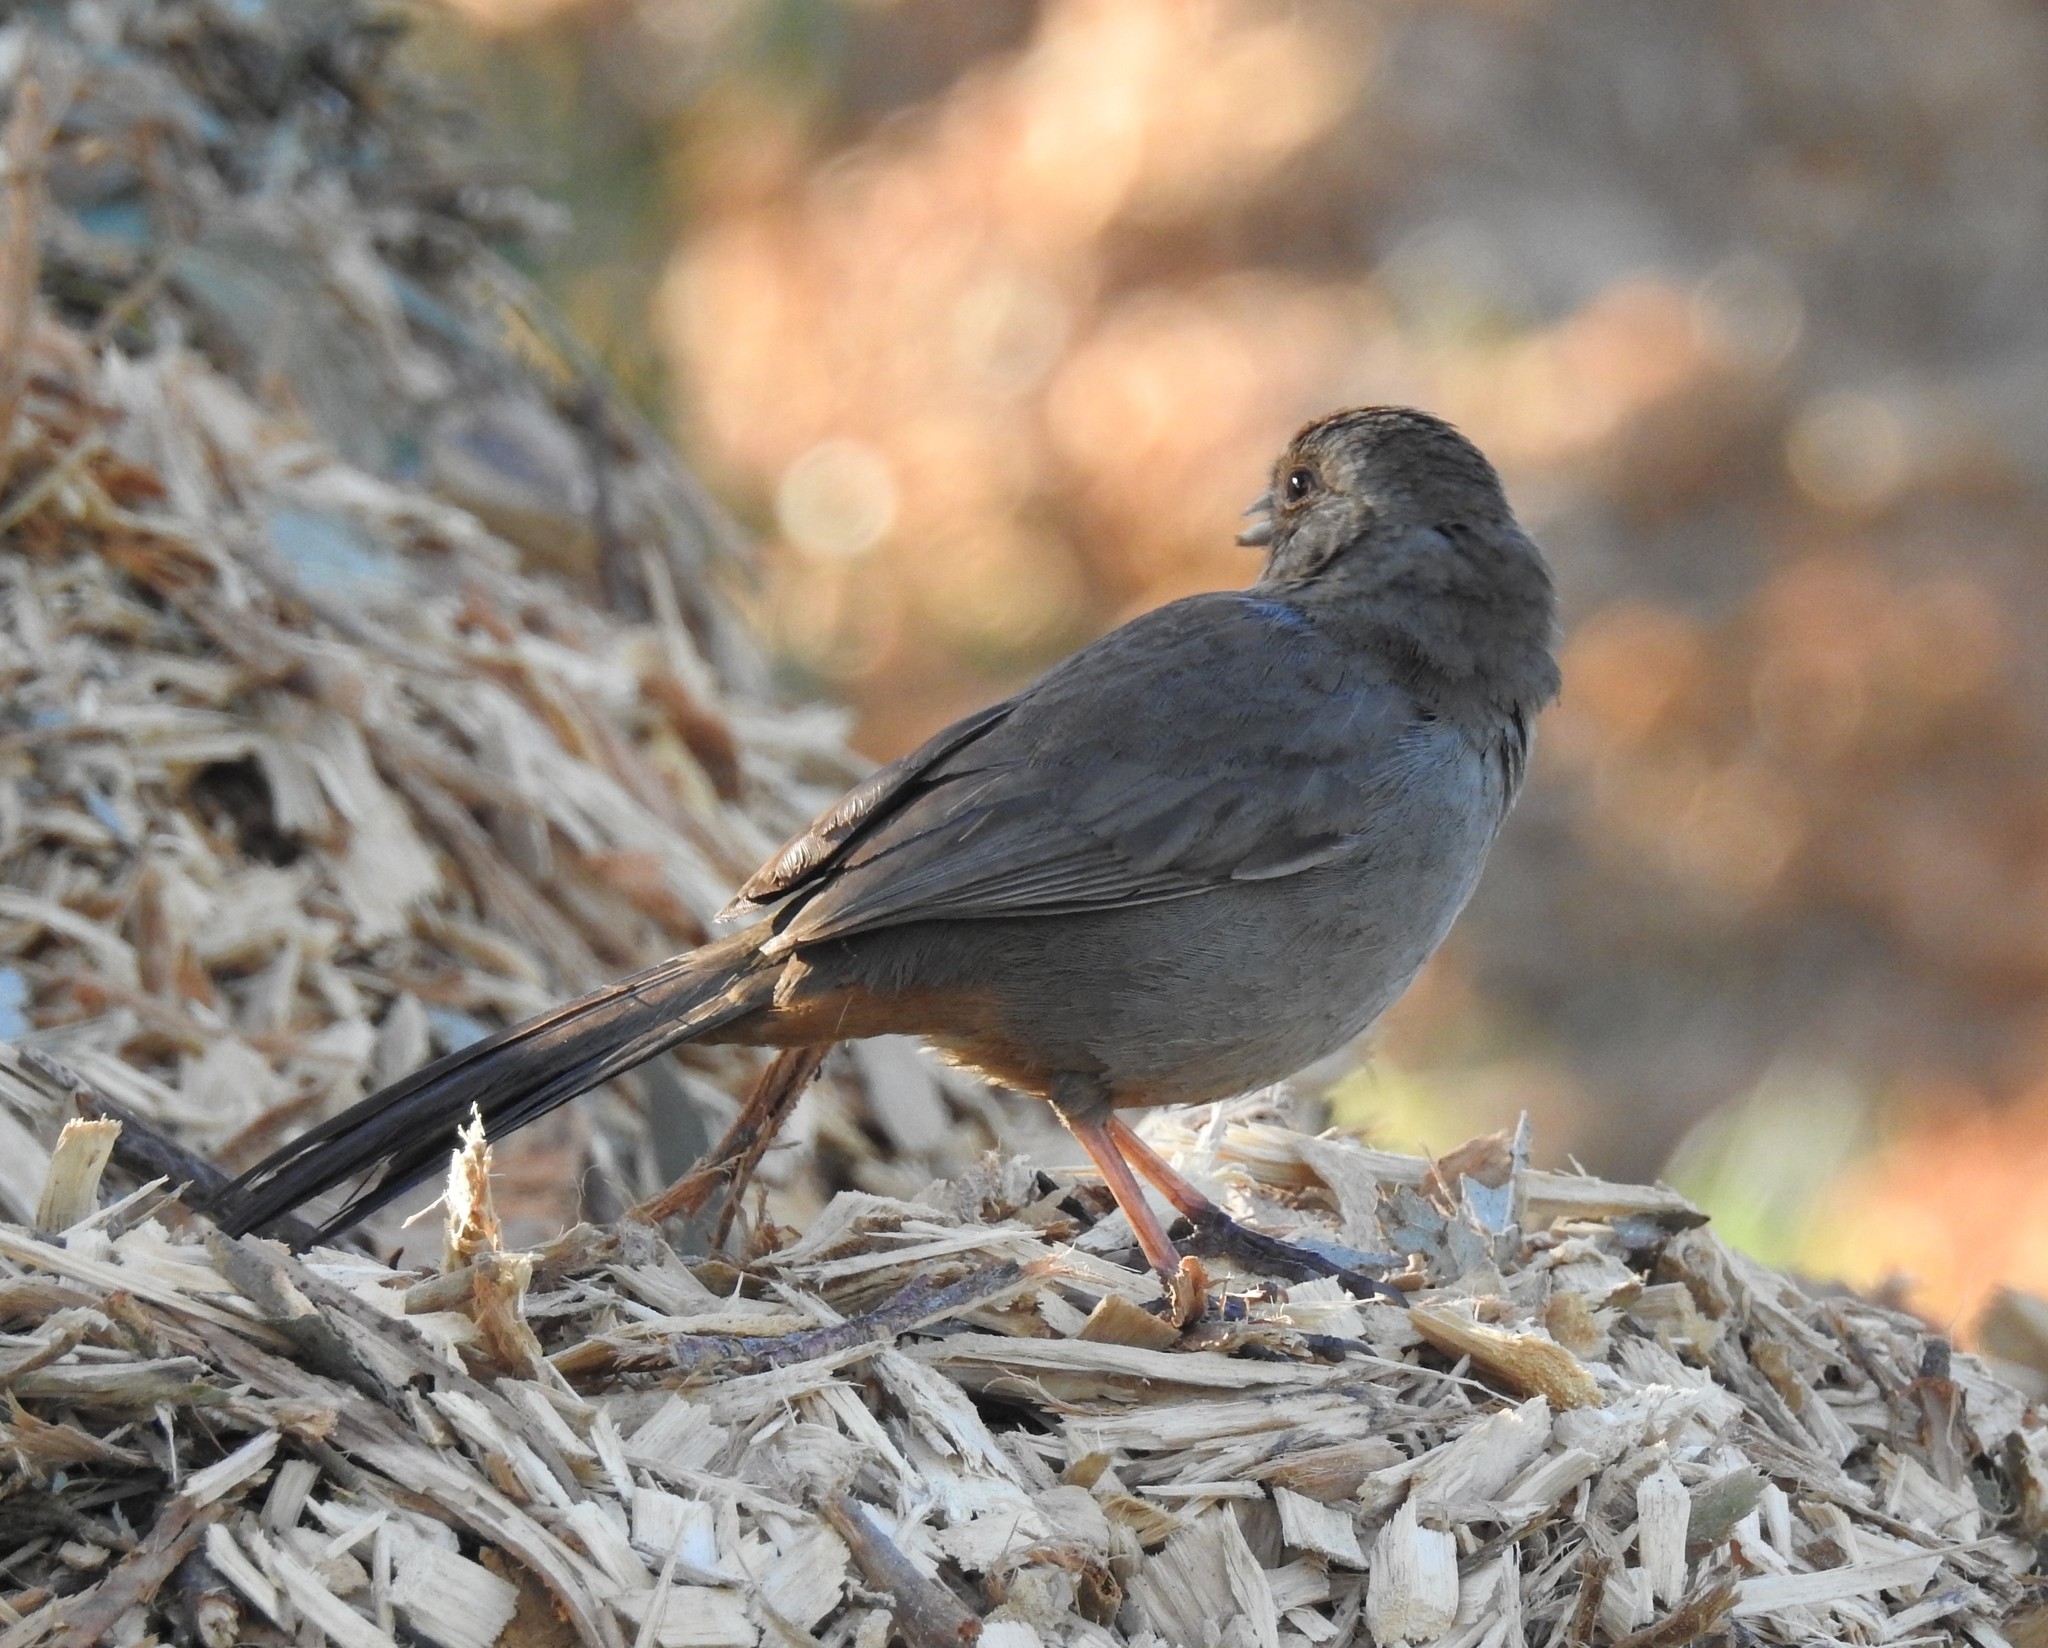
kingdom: Animalia
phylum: Chordata
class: Aves
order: Passeriformes
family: Passerellidae
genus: Melozone
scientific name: Melozone crissalis
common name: California towhee
